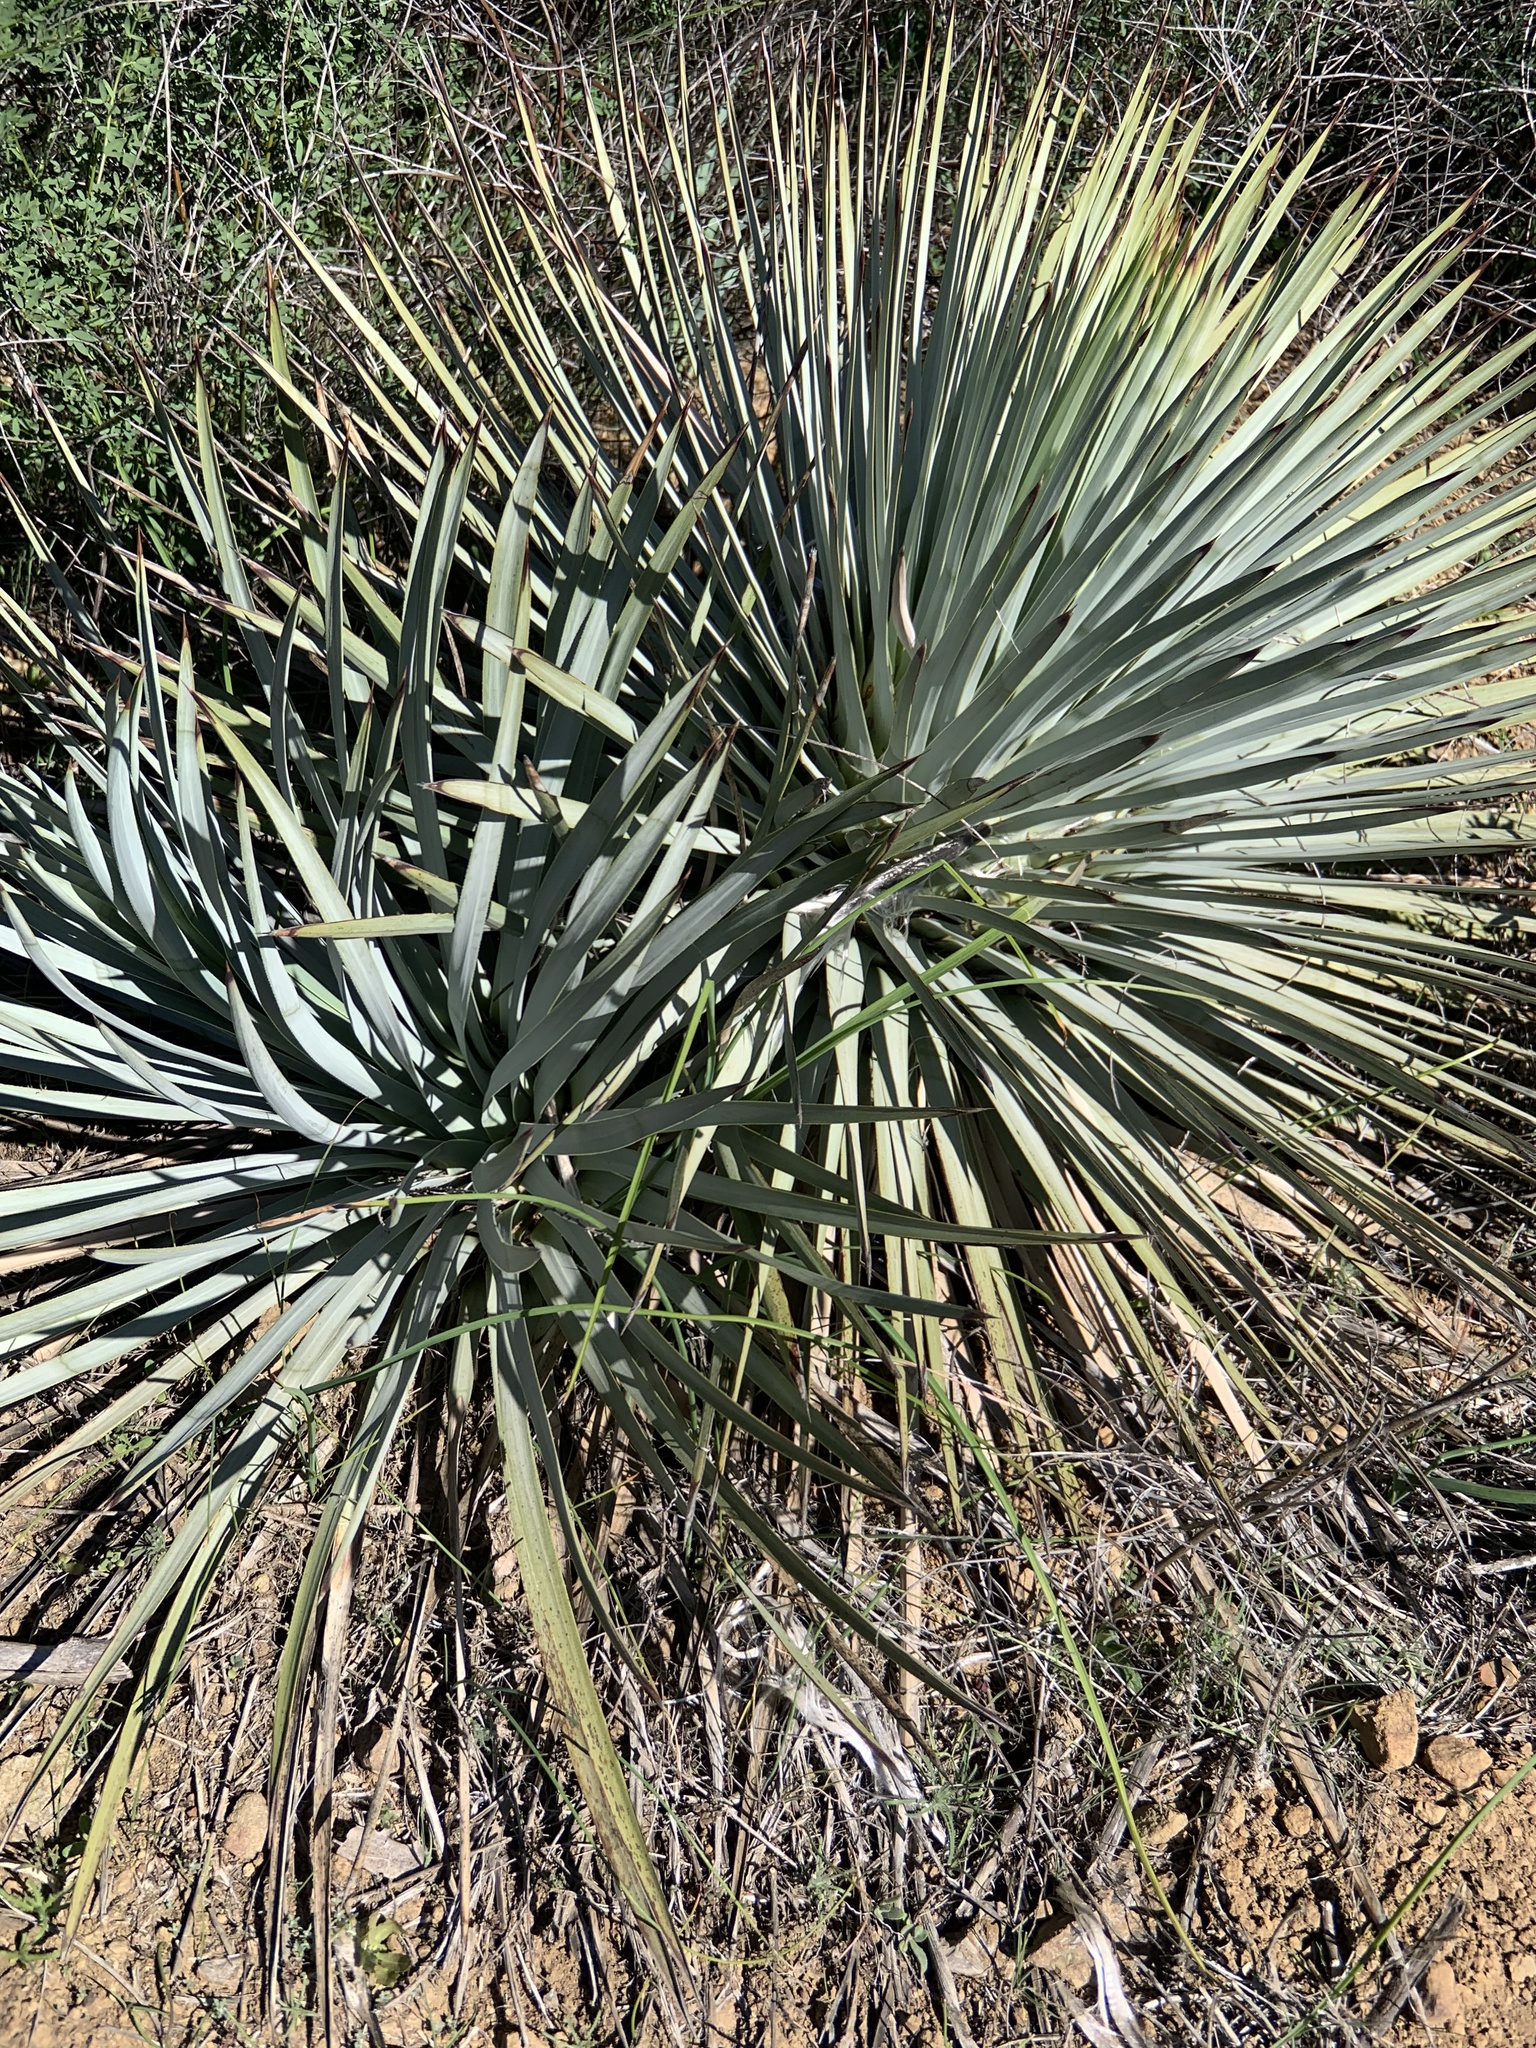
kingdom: Plantae
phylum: Tracheophyta
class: Liliopsida
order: Asparagales
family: Asparagaceae
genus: Hesperoyucca
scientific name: Hesperoyucca whipplei
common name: Our lord's-candle
